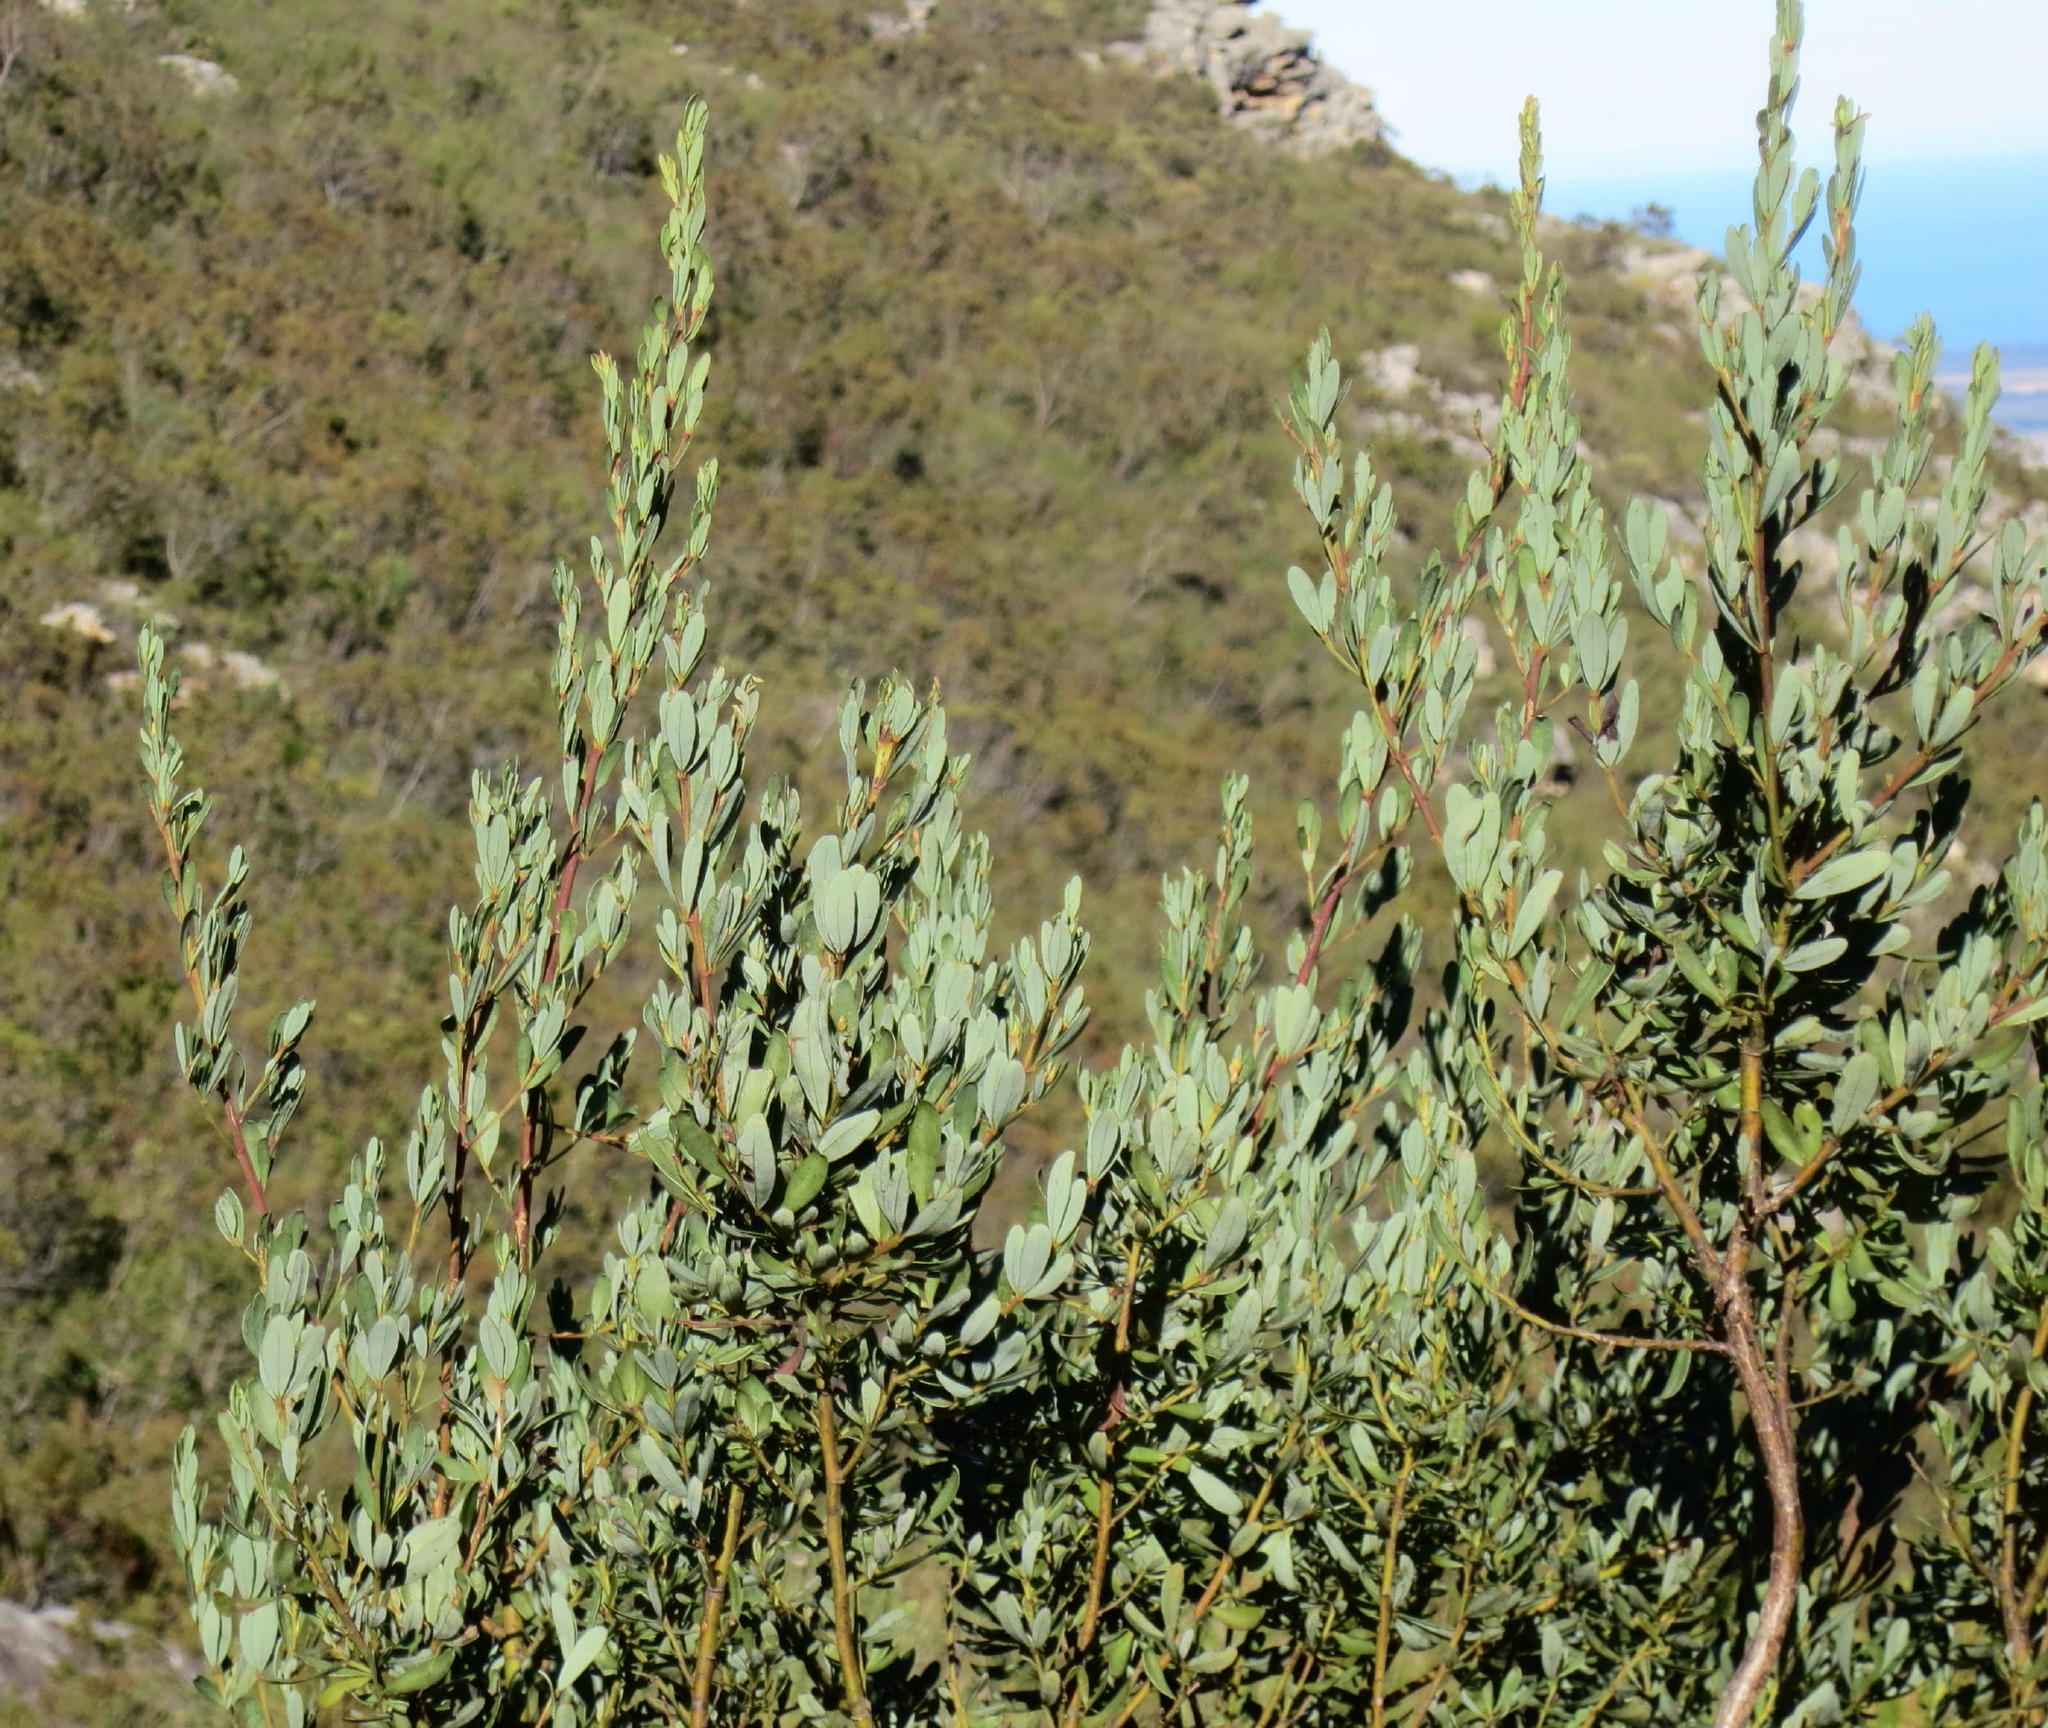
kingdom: Plantae
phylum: Tracheophyta
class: Magnoliopsida
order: Fabales
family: Fabaceae
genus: Cyclopia
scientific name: Cyclopia subternata
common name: Honeybush tea
